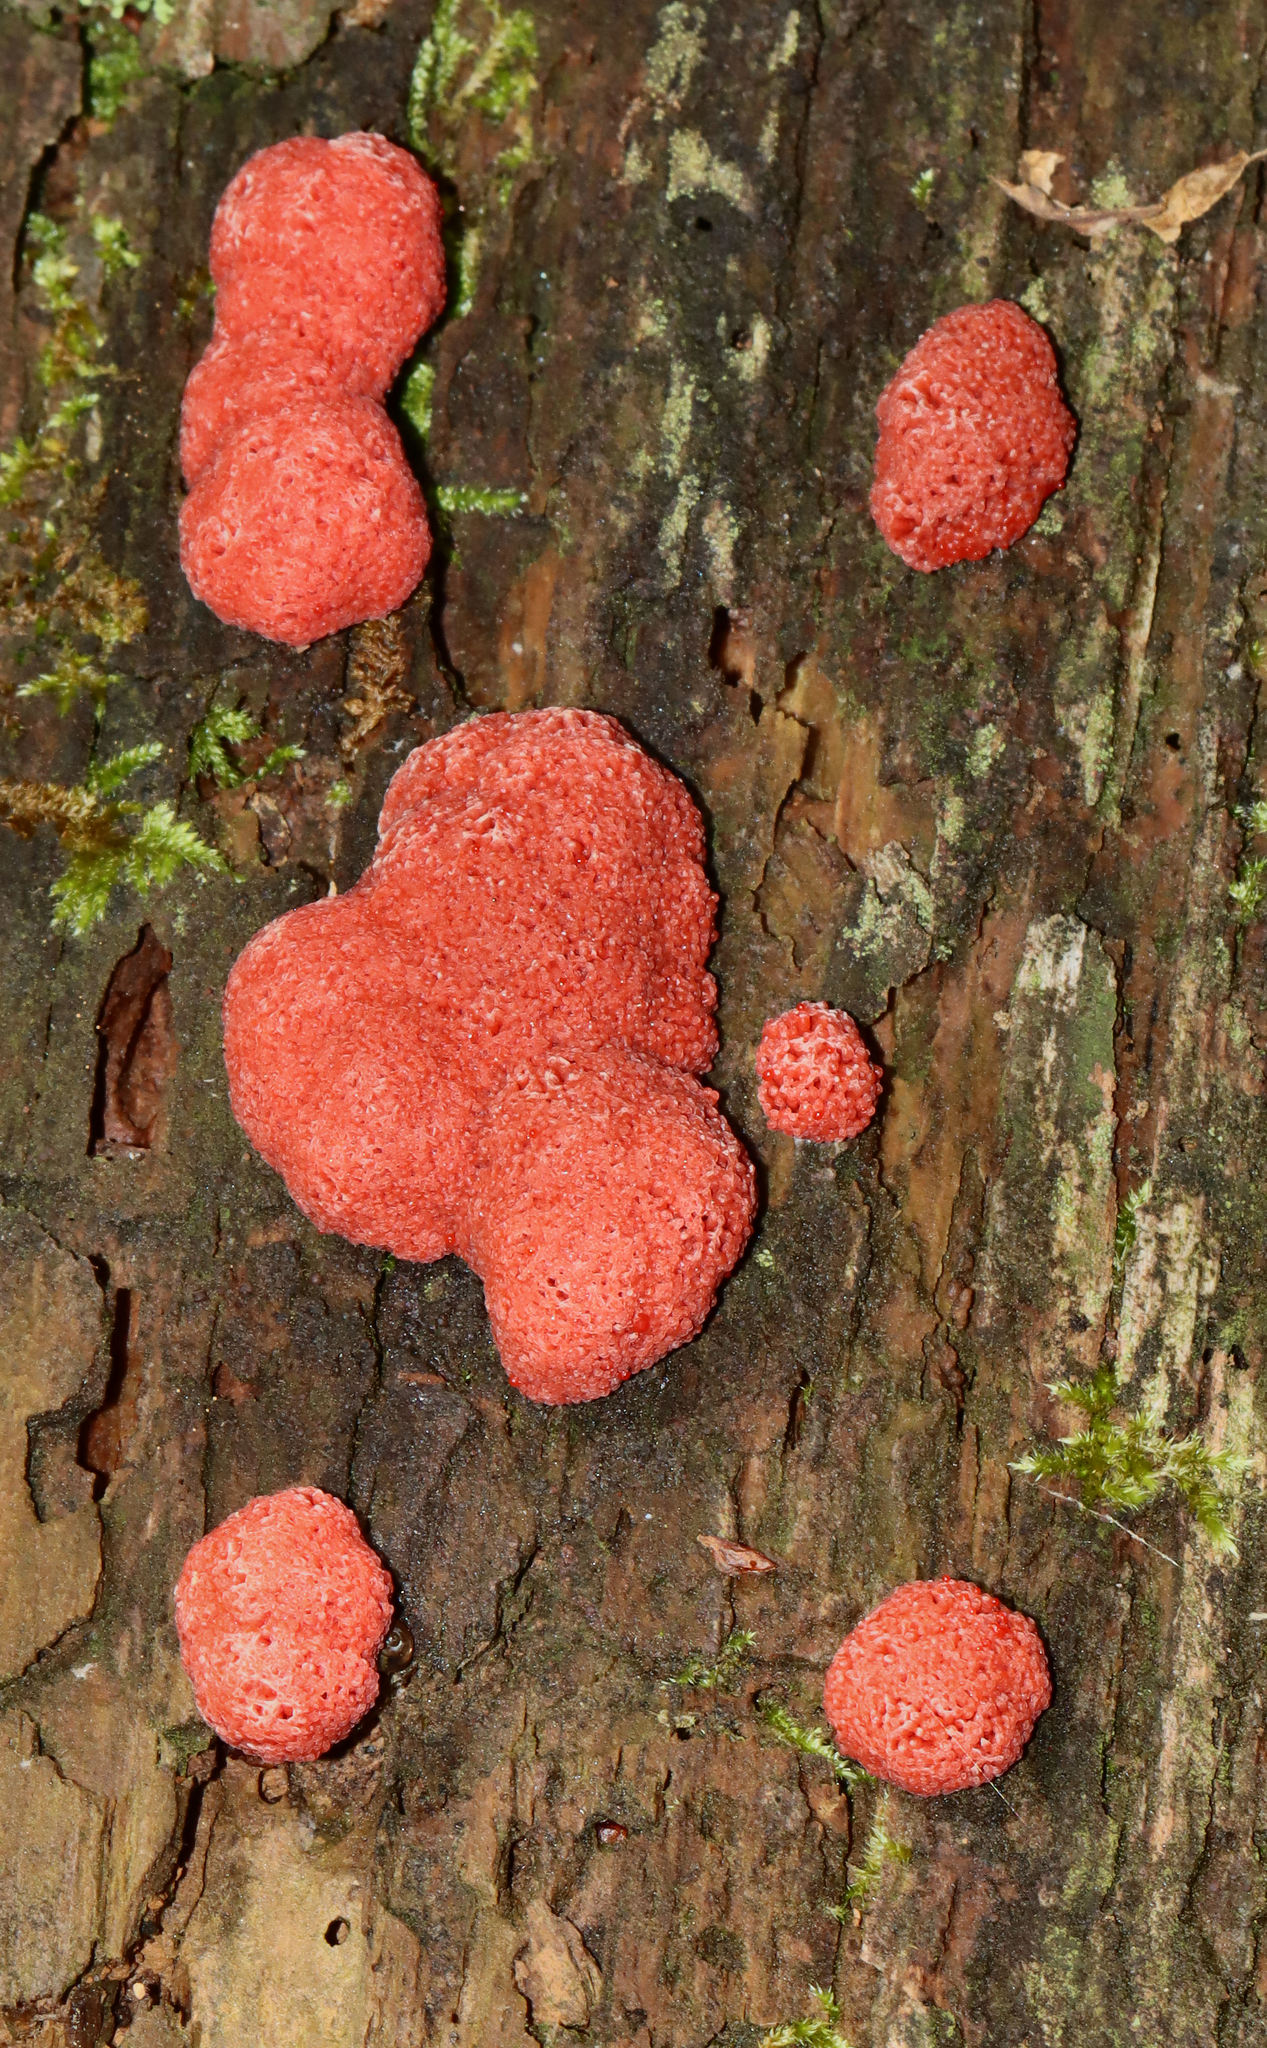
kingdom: Protozoa
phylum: Mycetozoa
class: Myxomycetes
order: Cribrariales
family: Tubiferaceae
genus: Tubifera
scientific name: Tubifera ferruginosa
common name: Red raspberry slime mold
